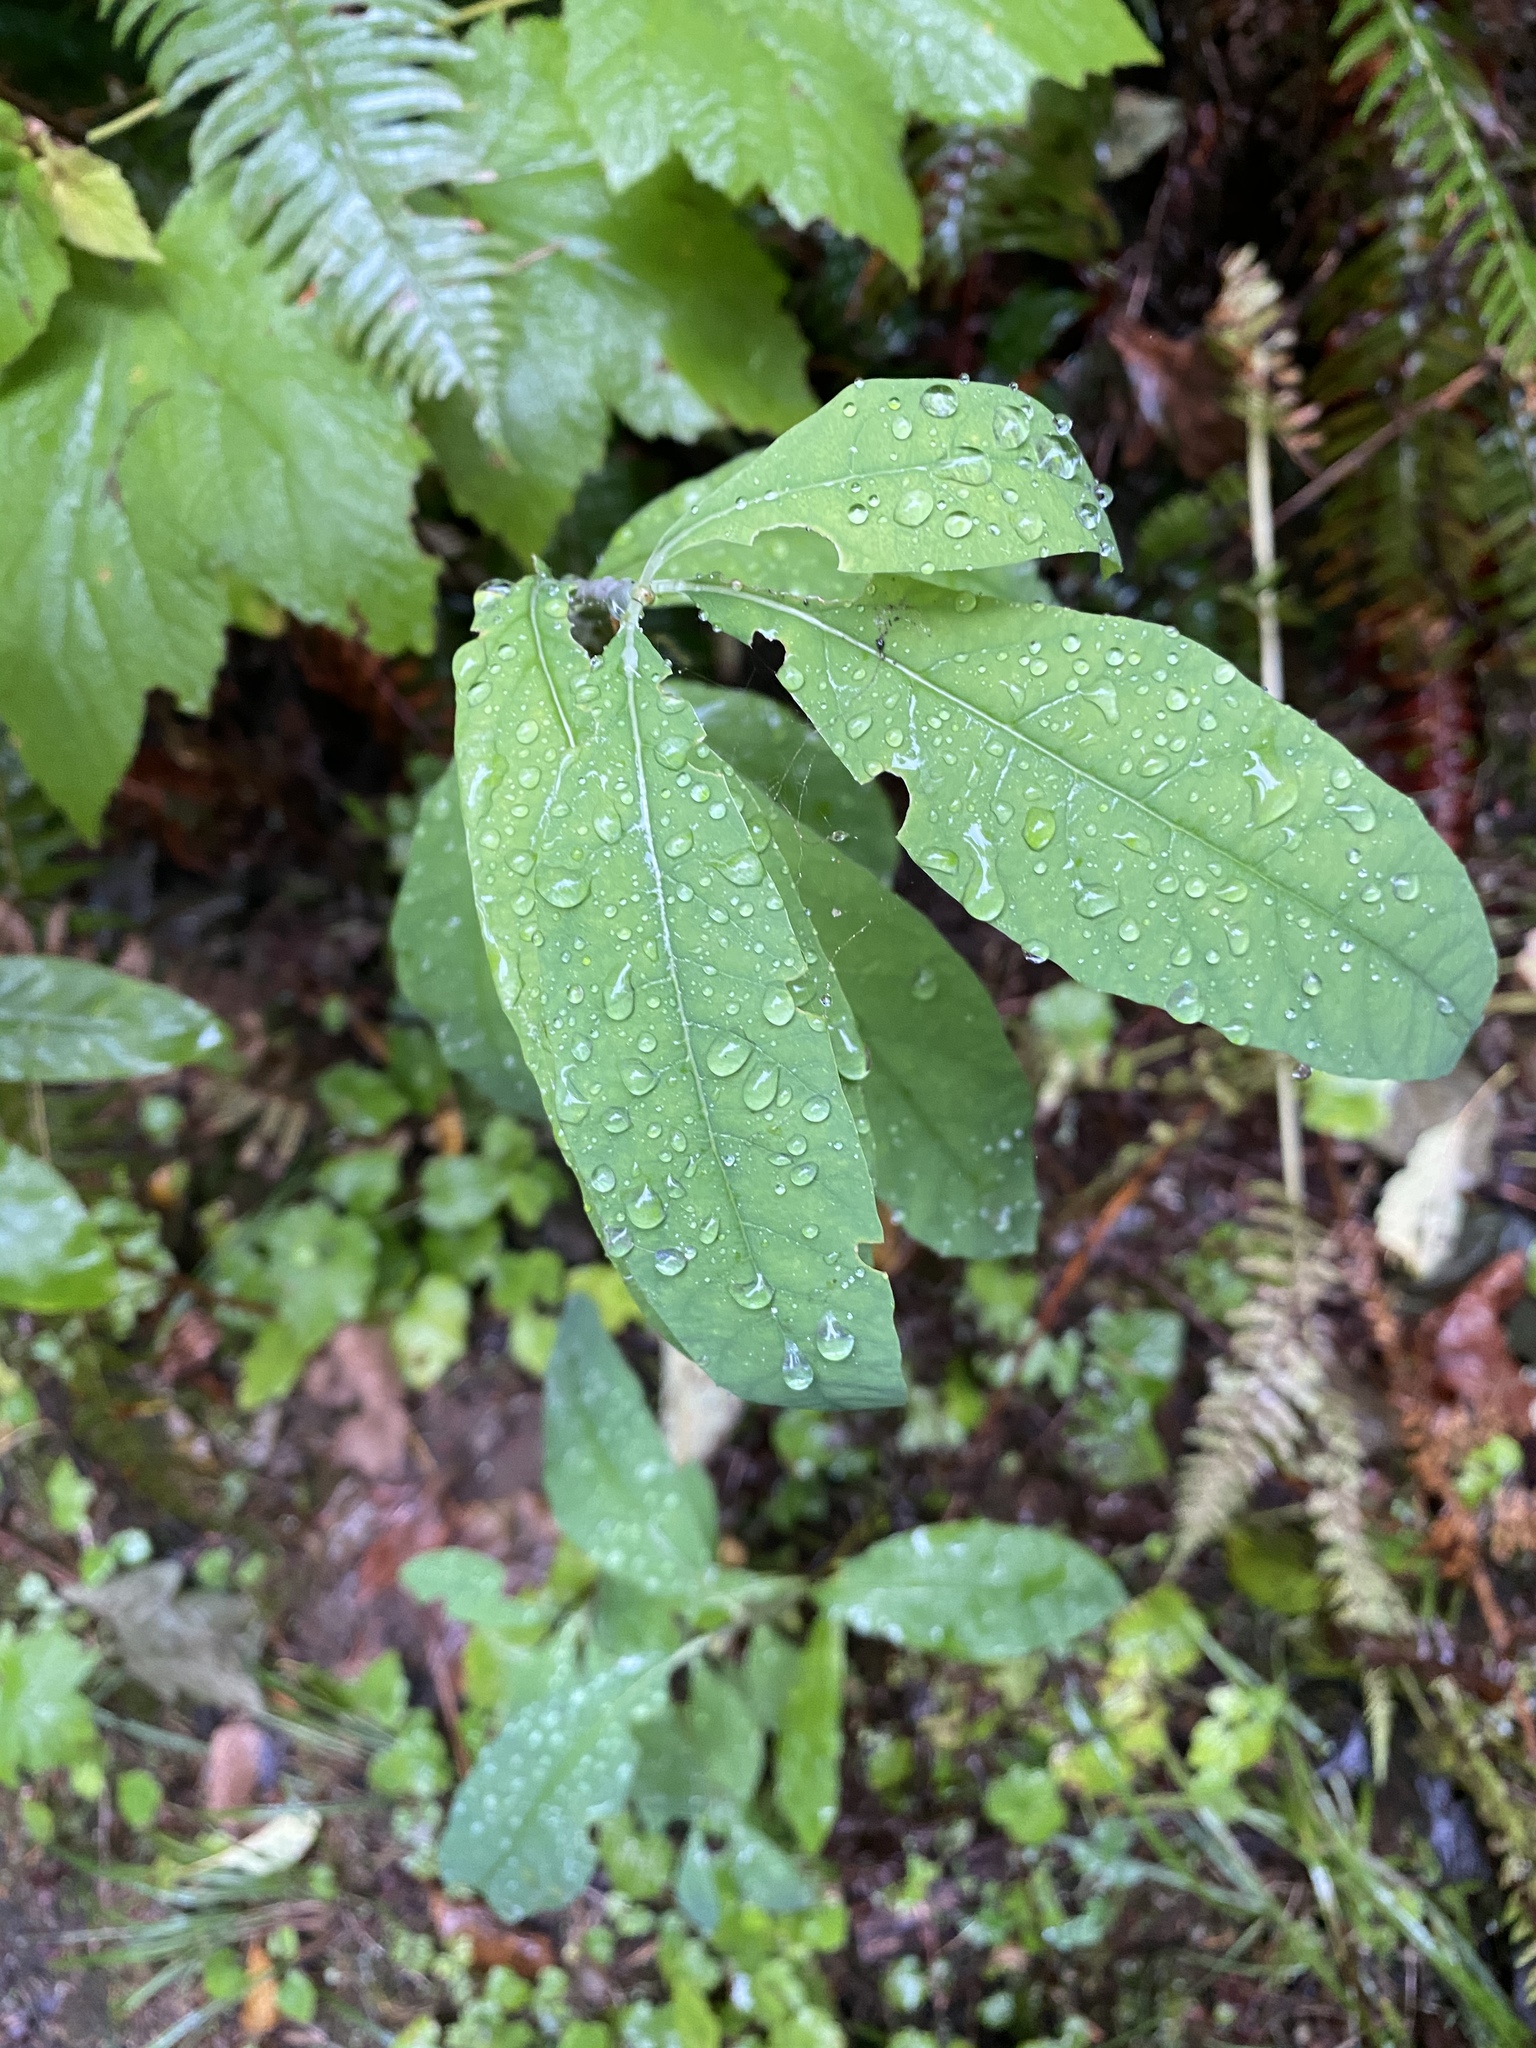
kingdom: Plantae
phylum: Tracheophyta
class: Magnoliopsida
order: Rosales
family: Rosaceae
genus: Oemleria
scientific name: Oemleria cerasiformis
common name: Osoberry
